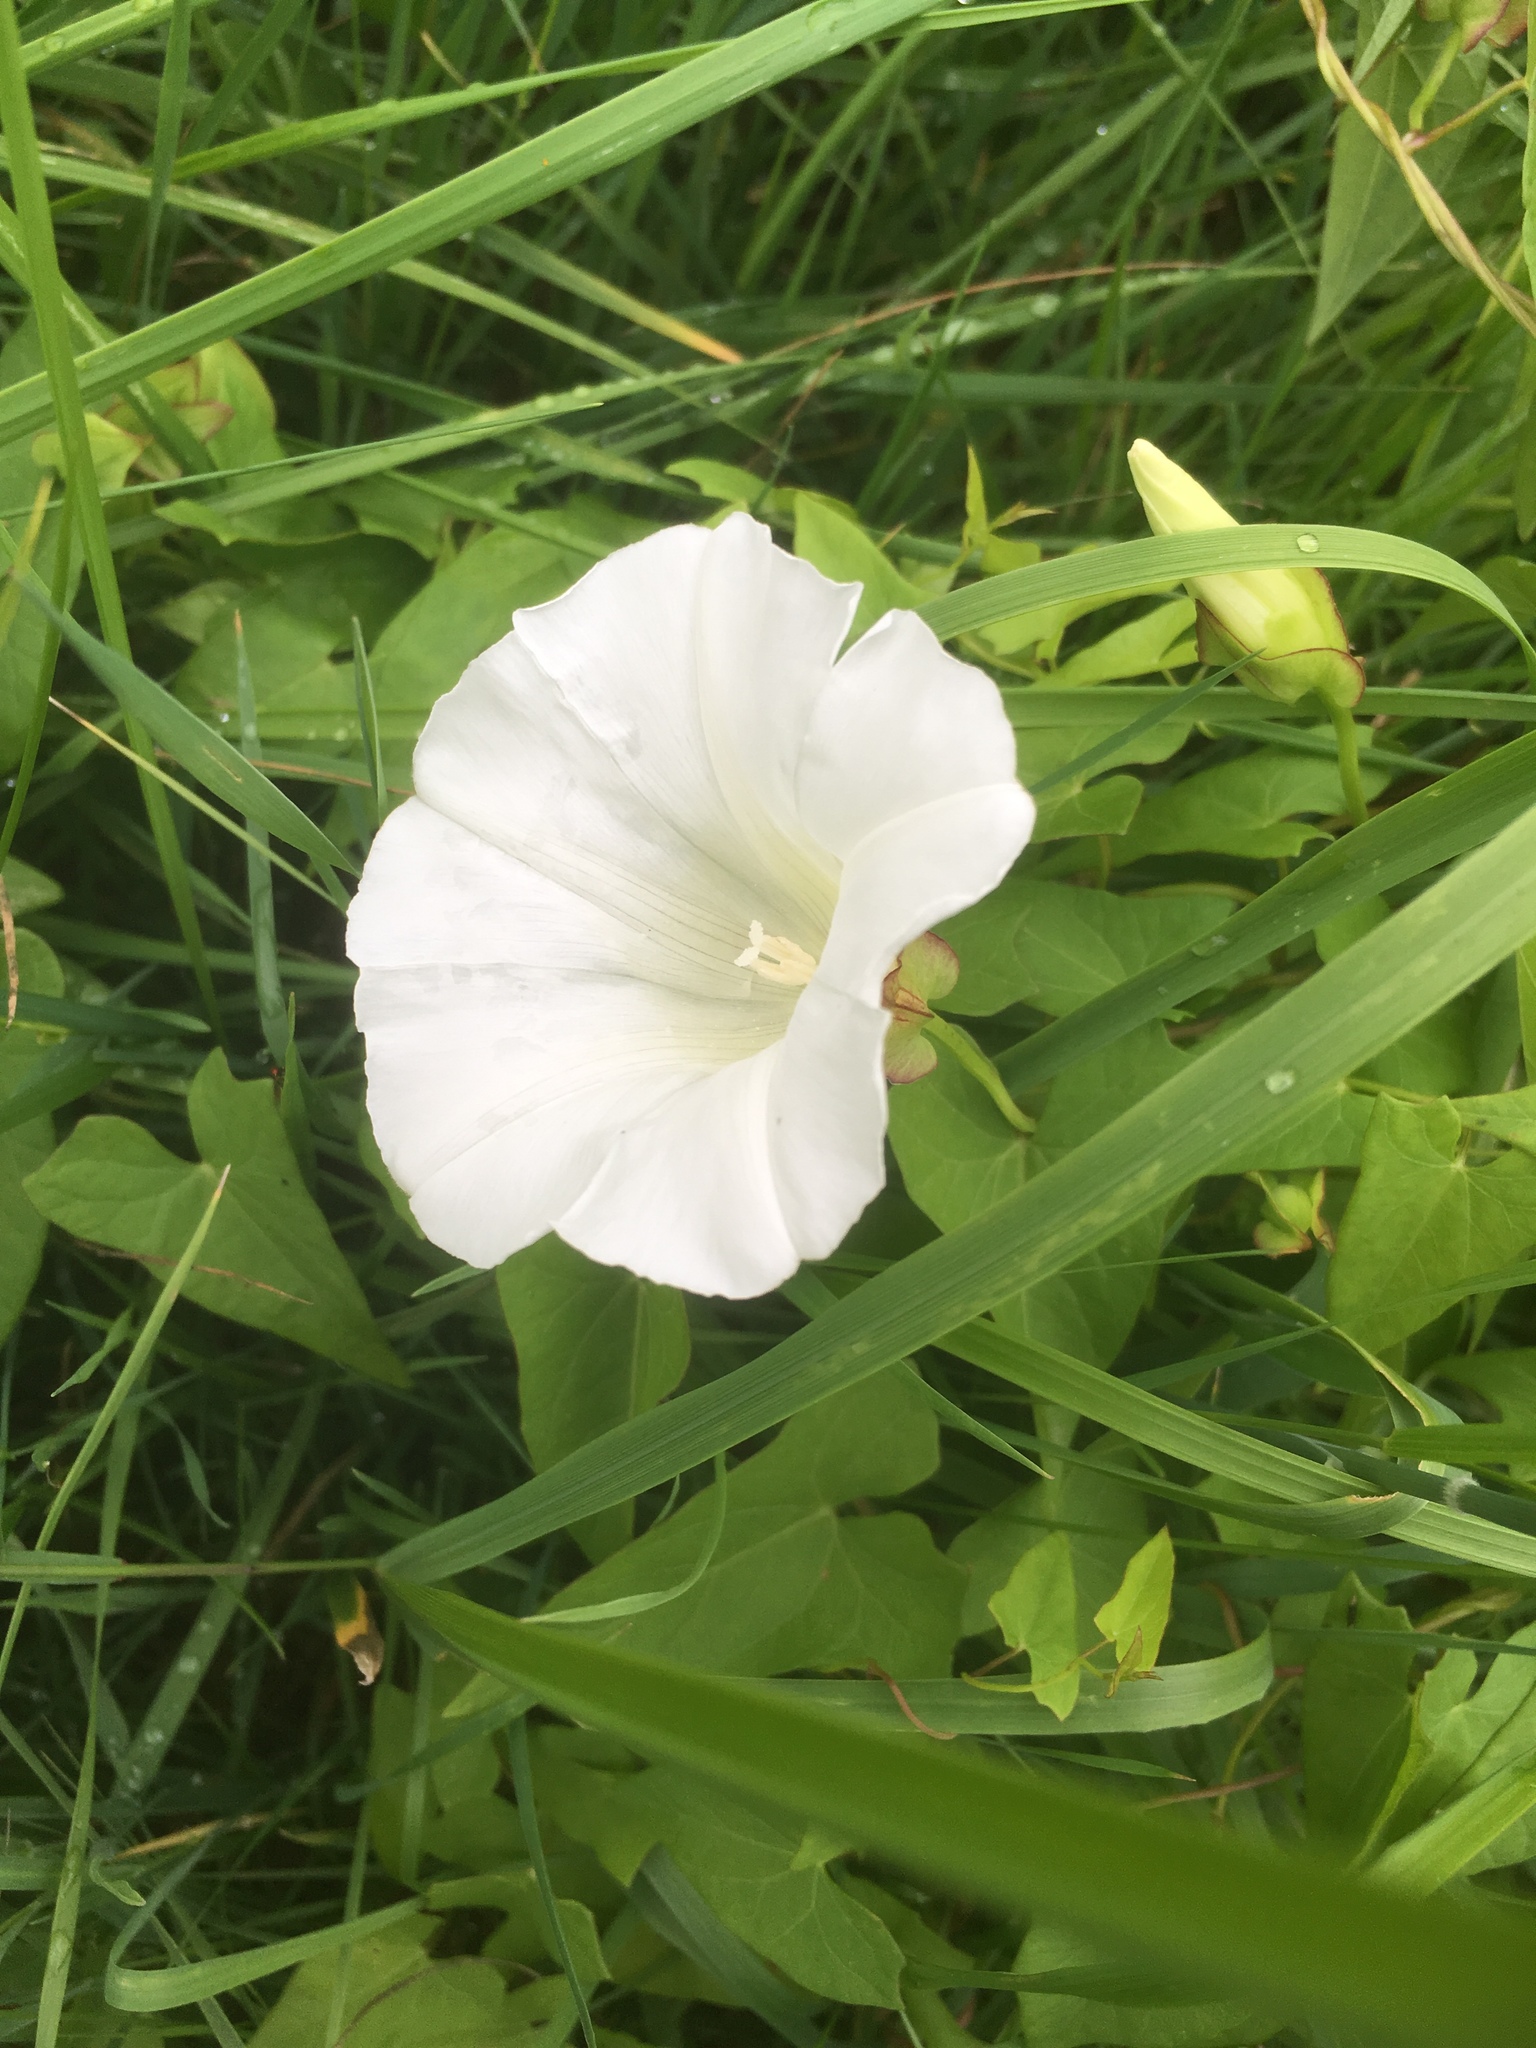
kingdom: Plantae
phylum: Tracheophyta
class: Magnoliopsida
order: Solanales
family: Convolvulaceae
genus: Calystegia
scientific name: Calystegia sepium
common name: Hedge bindweed
